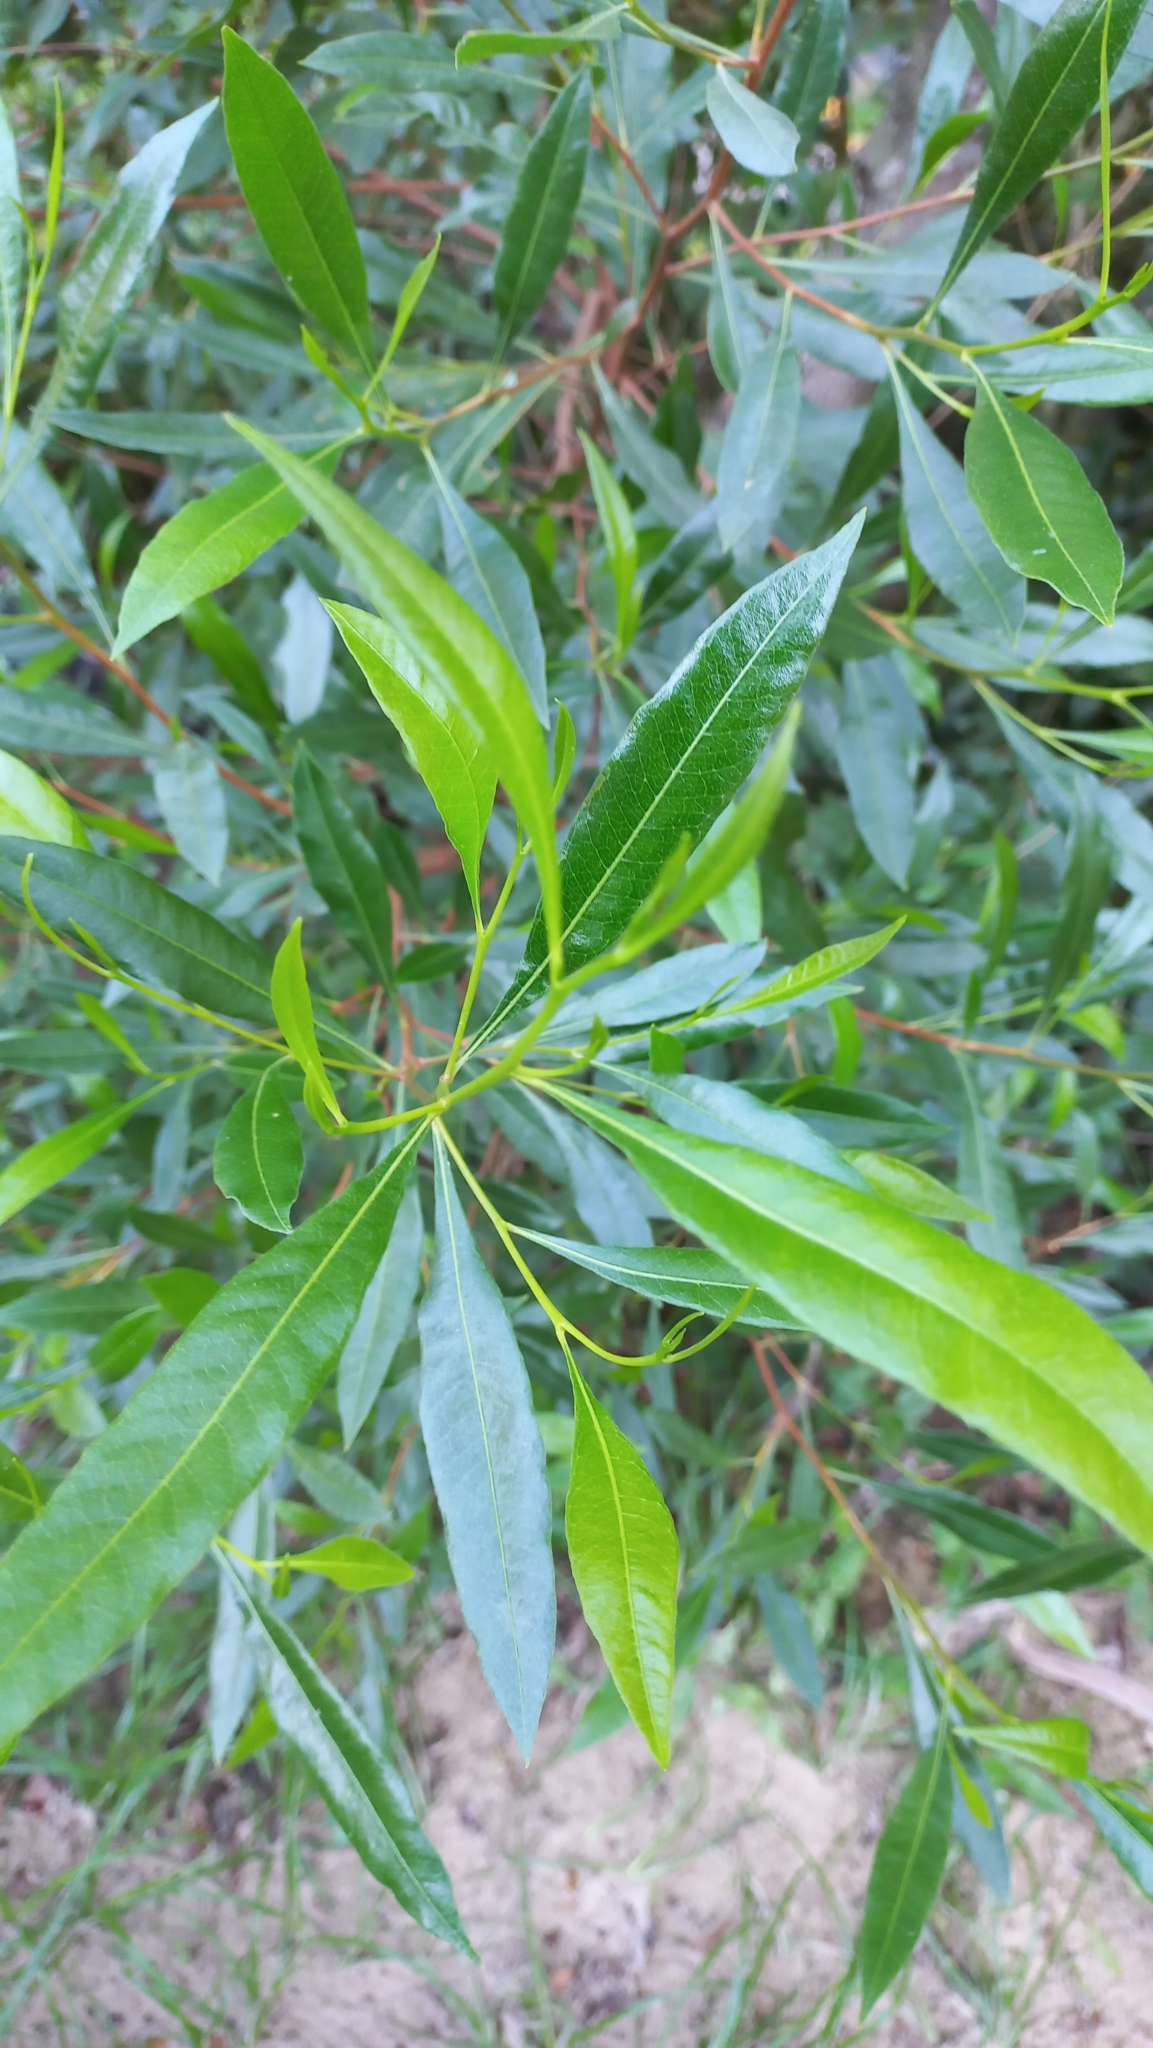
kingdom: Plantae
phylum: Tracheophyta
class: Magnoliopsida
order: Sapindales
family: Sapindaceae
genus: Dodonaea
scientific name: Dodonaea viscosa
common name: Hopbush
